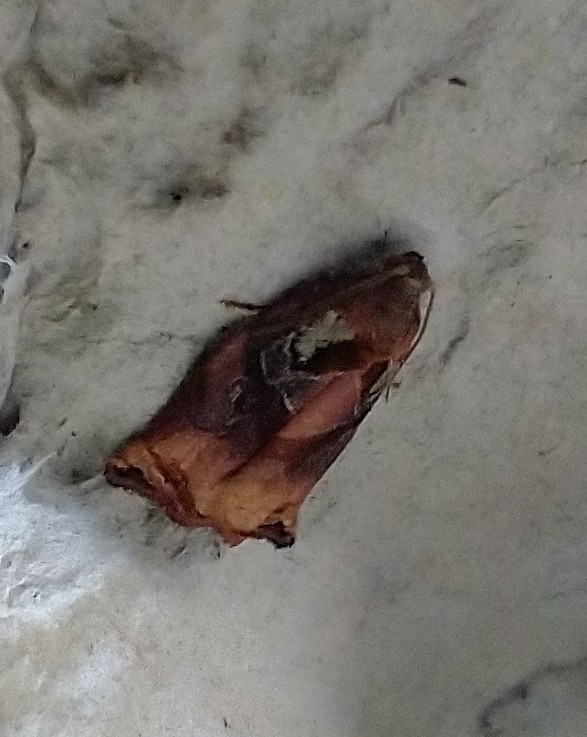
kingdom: Animalia
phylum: Arthropoda
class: Insecta
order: Lepidoptera
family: Tortricidae
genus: Archips
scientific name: Archips podana
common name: Large fruit-tree tortrix
